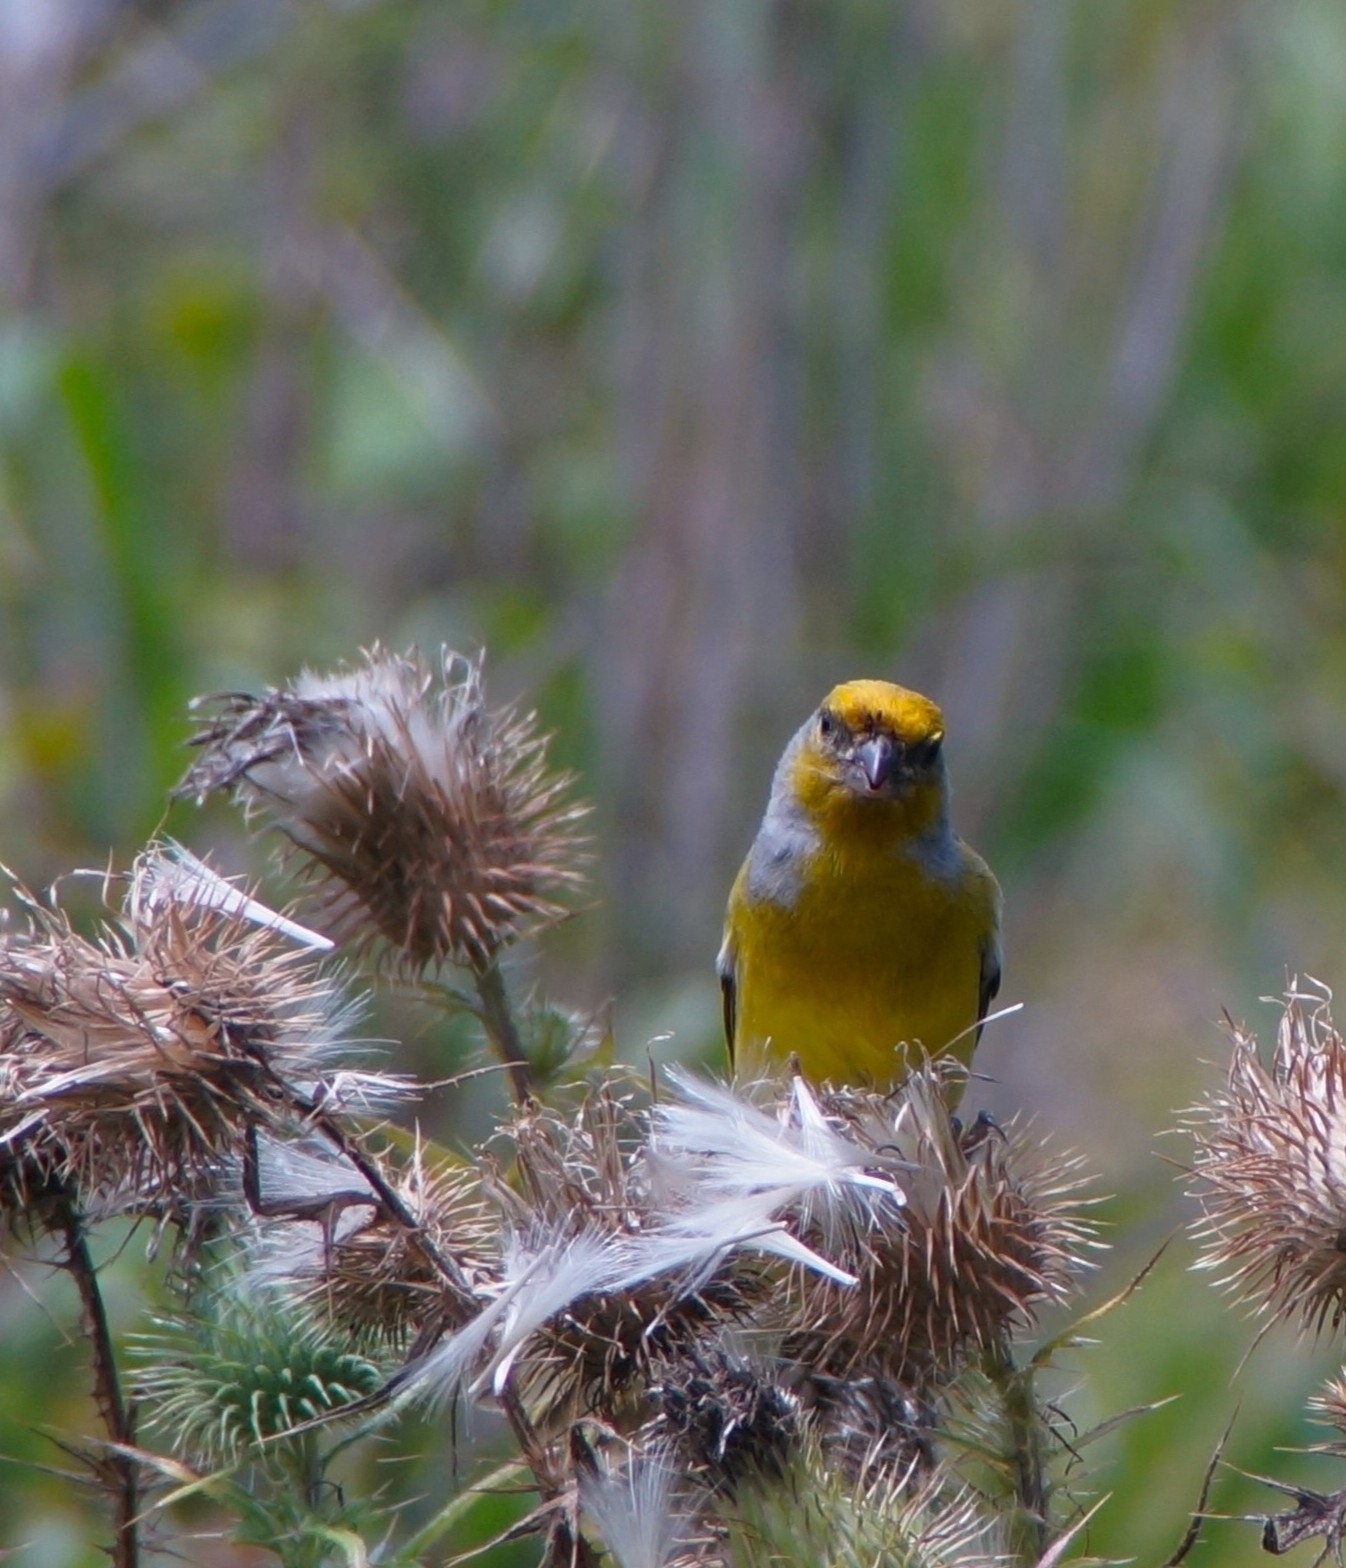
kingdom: Animalia
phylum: Chordata
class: Aves
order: Passeriformes
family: Fringillidae
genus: Serinus
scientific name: Serinus canicollis
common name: Cape canary
